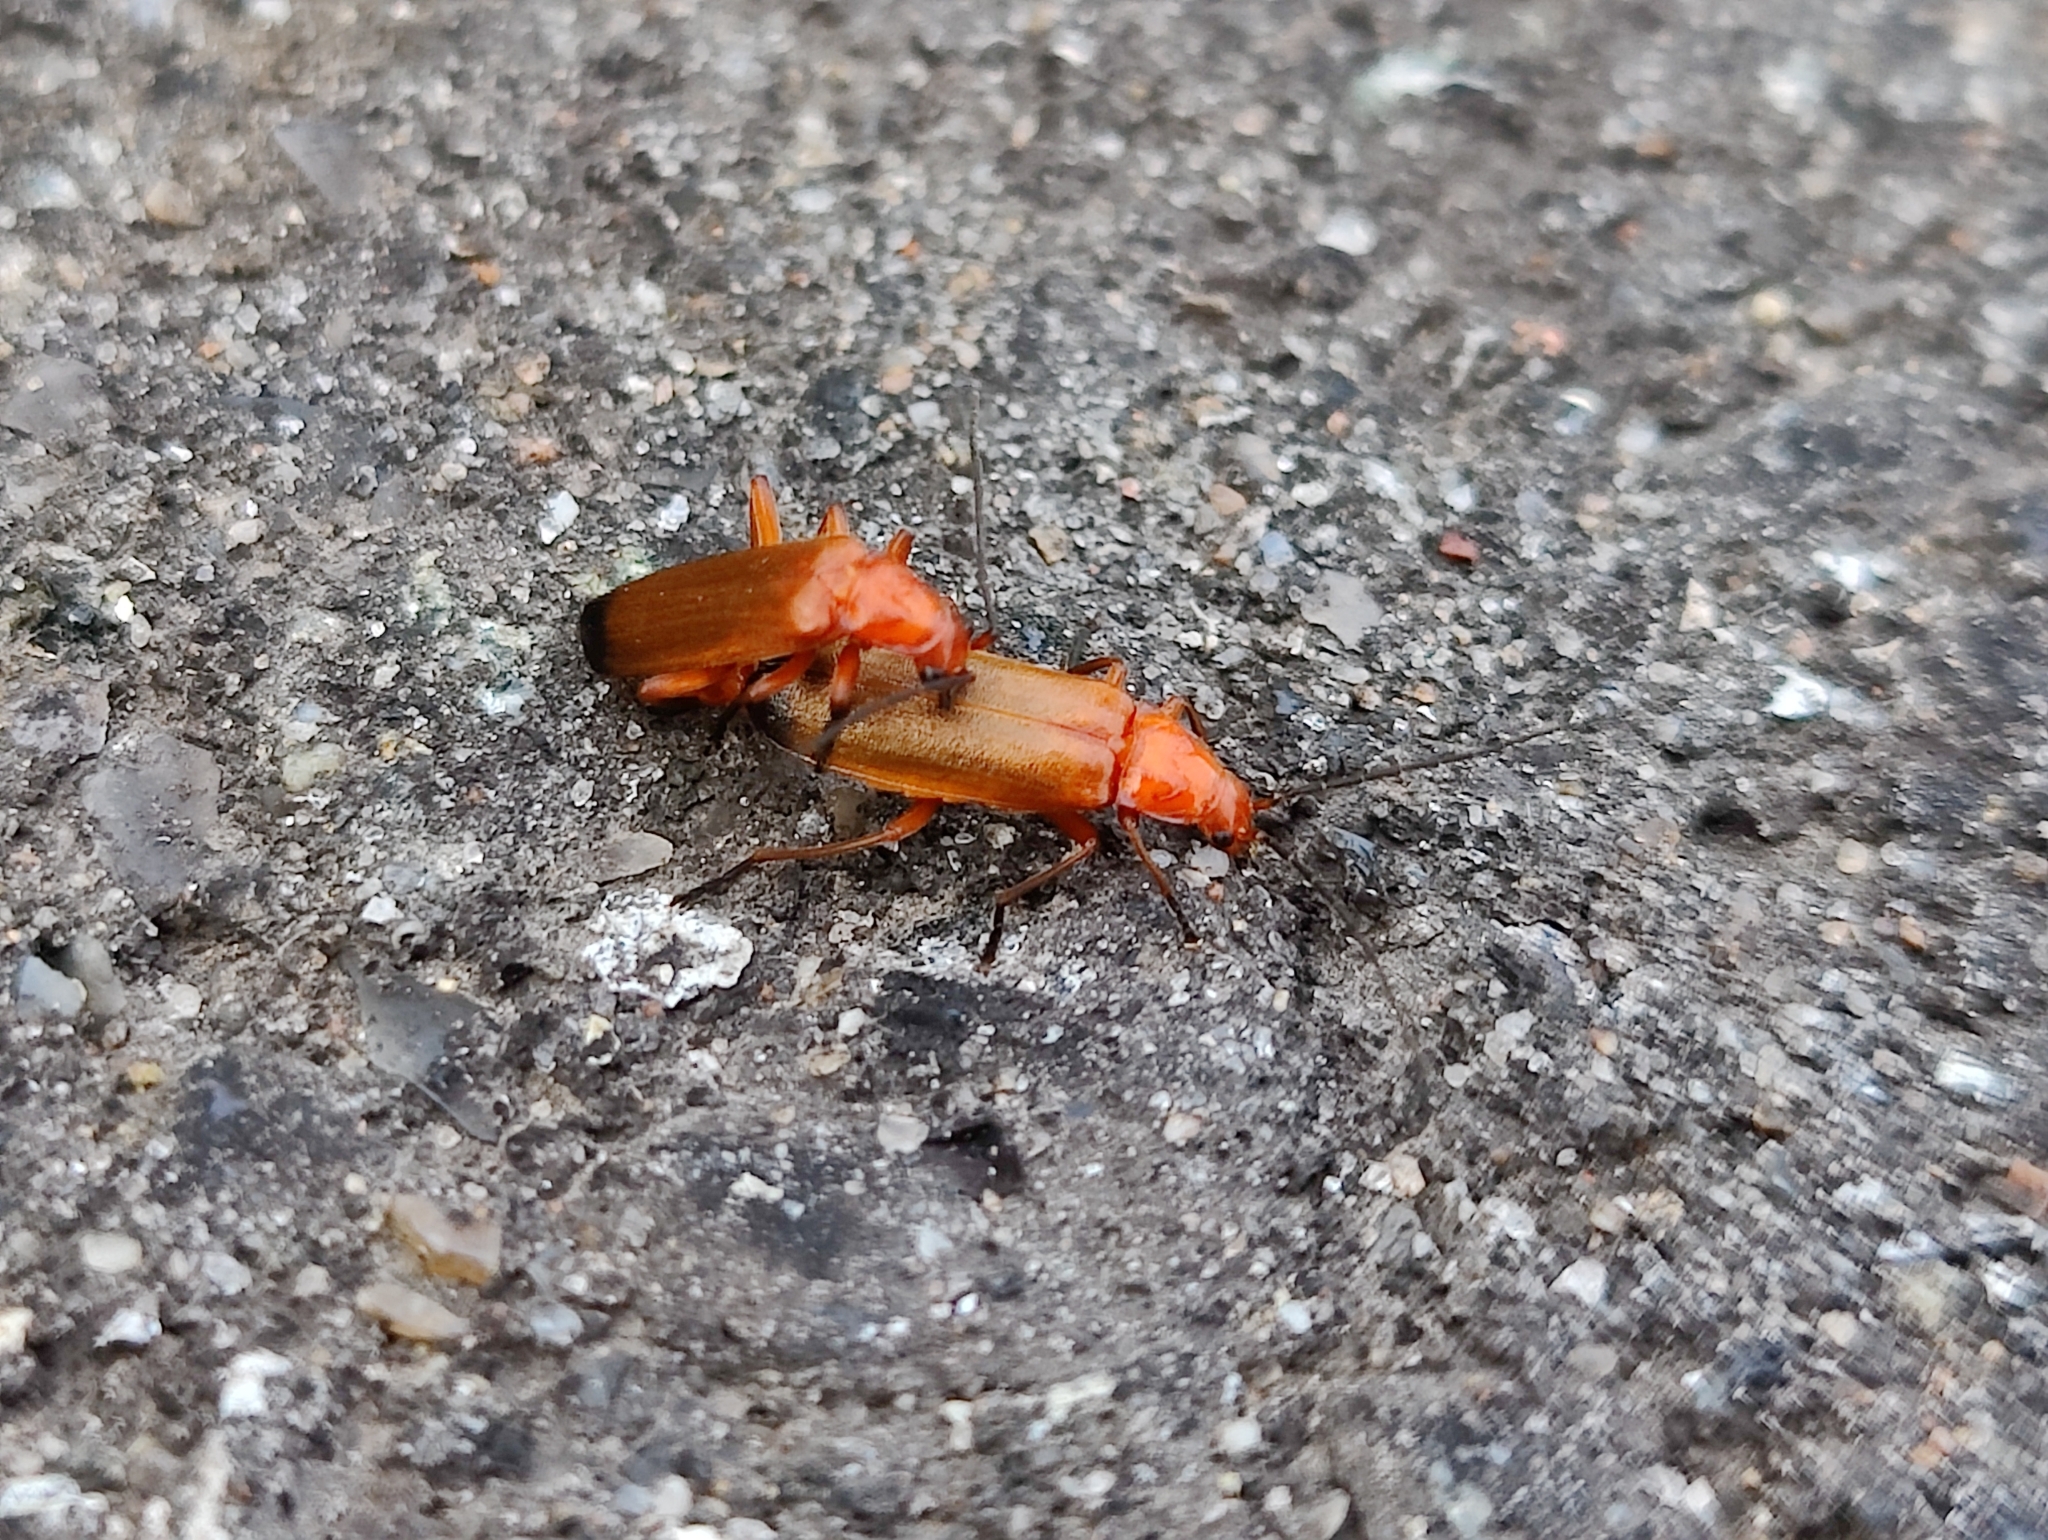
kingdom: Animalia
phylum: Arthropoda
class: Insecta
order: Coleoptera
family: Cantharidae
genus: Rhagonycha
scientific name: Rhagonycha fulva
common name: Common red soldier beetle
